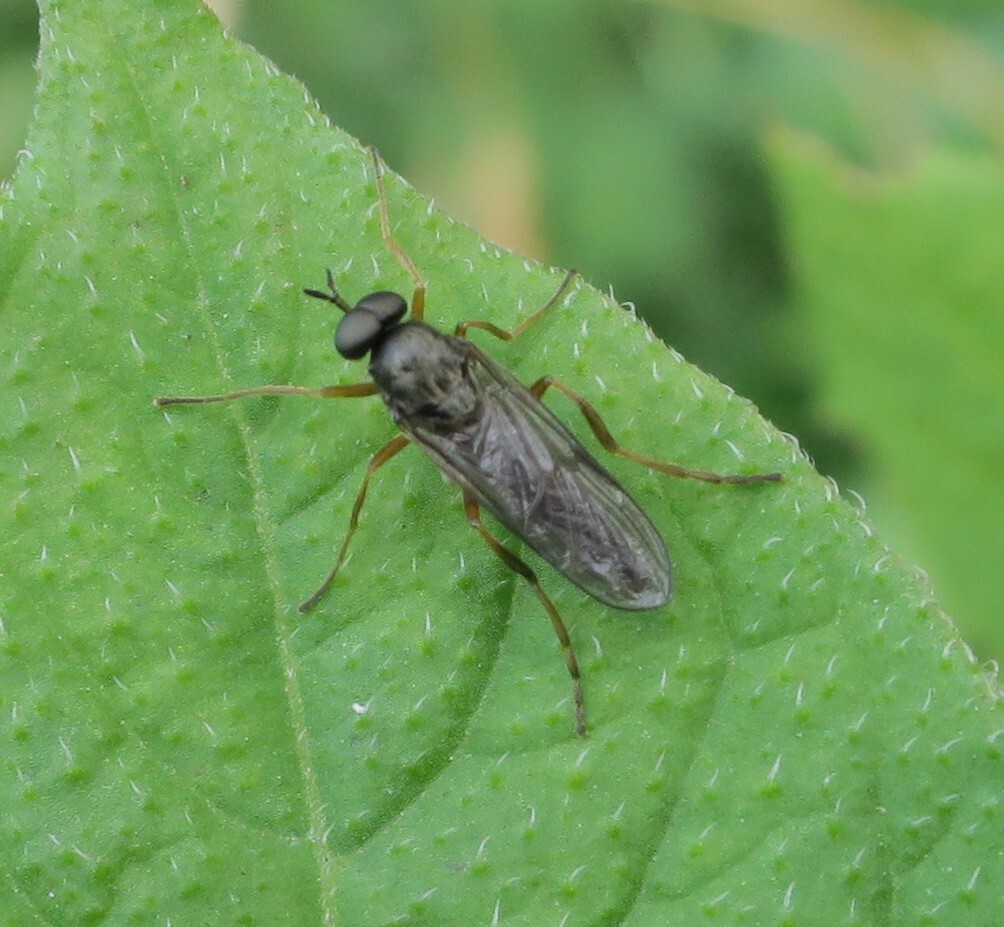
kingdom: Animalia
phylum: Arthropoda
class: Insecta
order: Diptera
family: Stratiomyidae
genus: Inopus
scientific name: Inopus rubriceps
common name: Soldier fly
